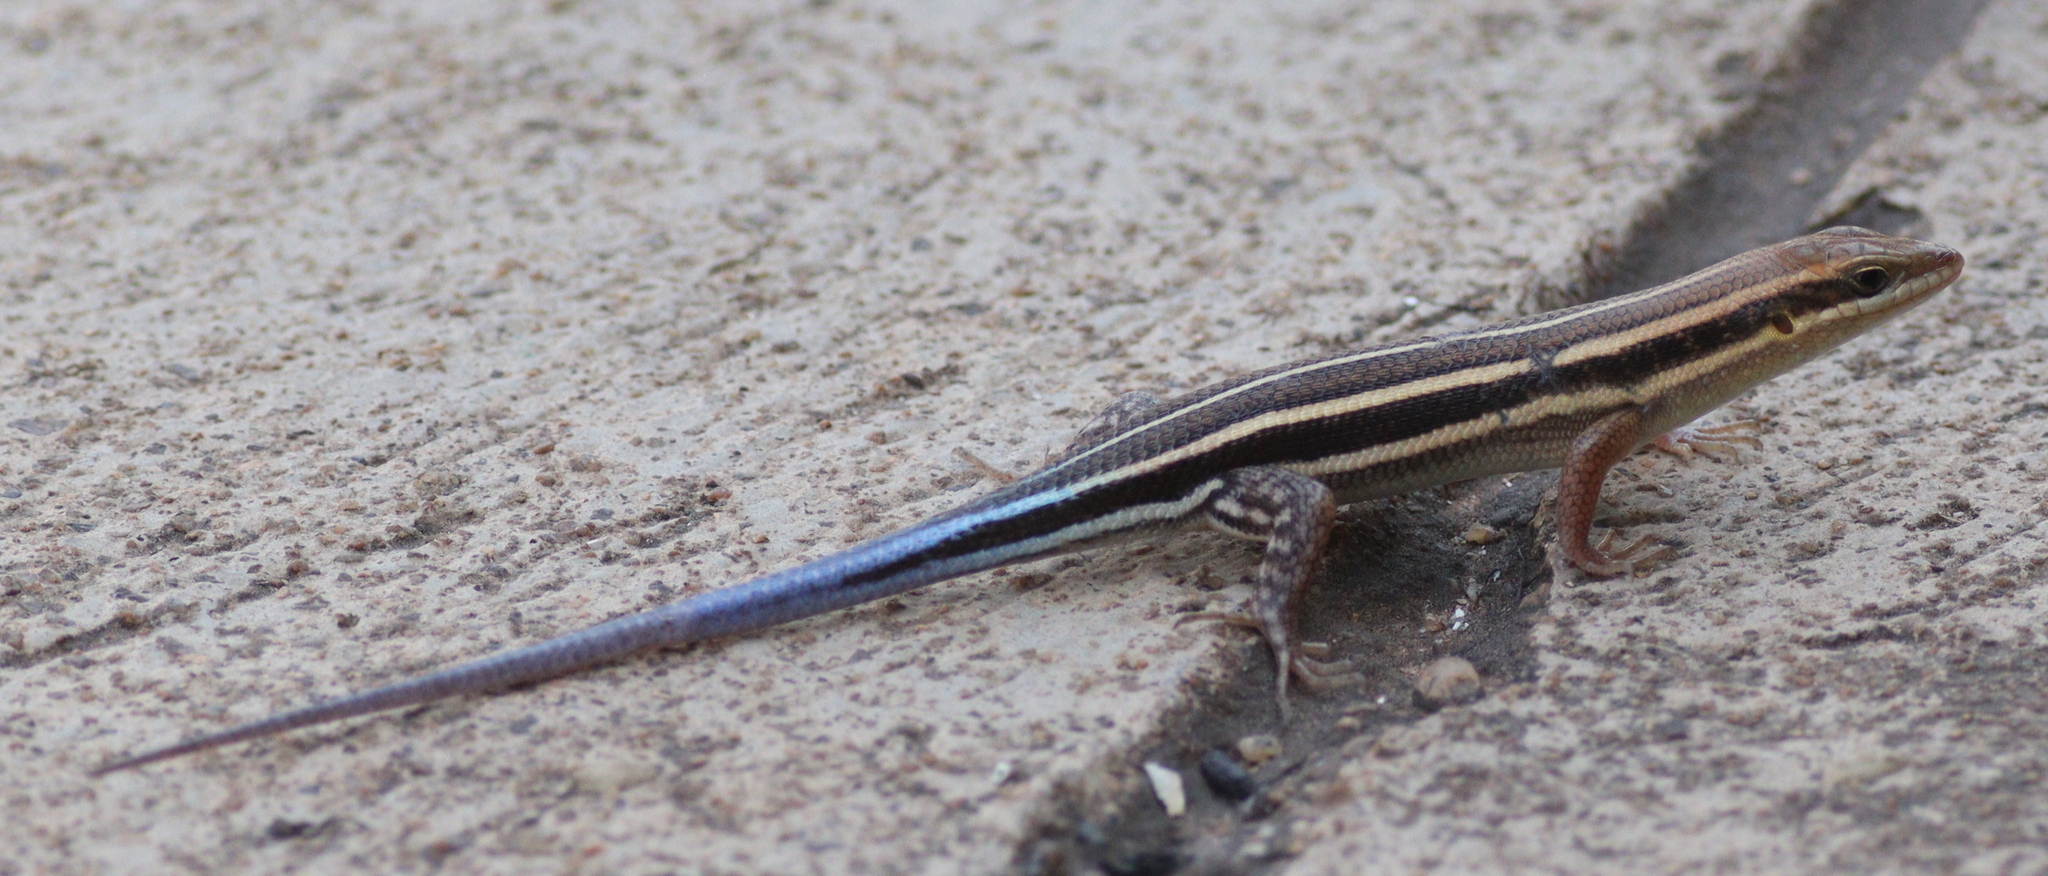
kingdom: Animalia
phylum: Chordata
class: Squamata
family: Scincidae
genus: Trachylepis
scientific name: Trachylepis quinquetaeniata
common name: African five-lined skink
